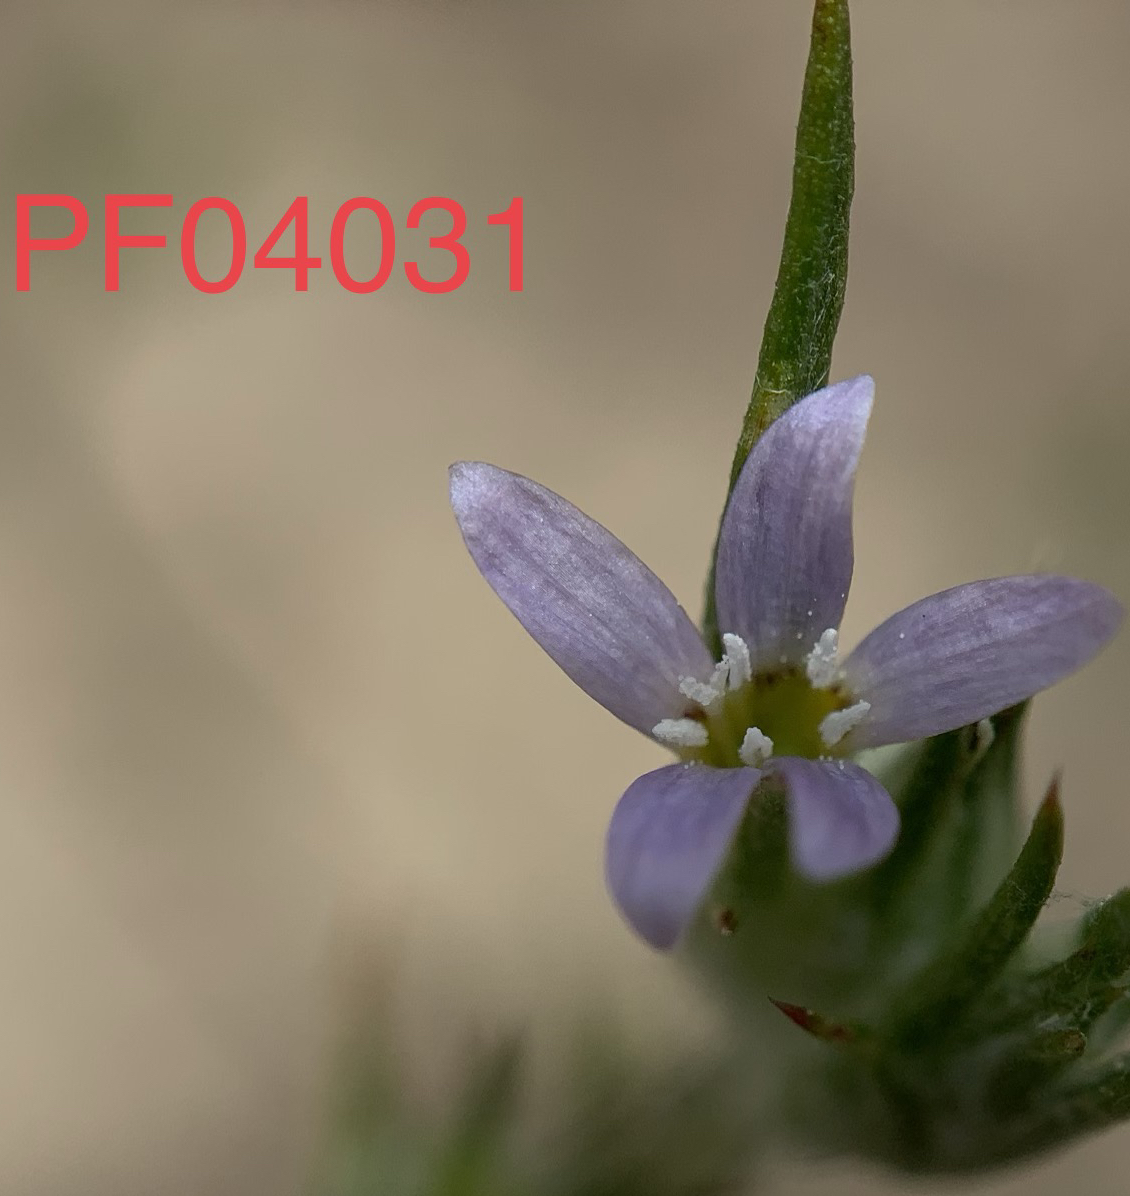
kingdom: Plantae
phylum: Tracheophyta
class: Magnoliopsida
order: Ericales
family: Polemoniaceae
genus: Eriastrum
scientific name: Eriastrum signatum
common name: Great basin woollystar
